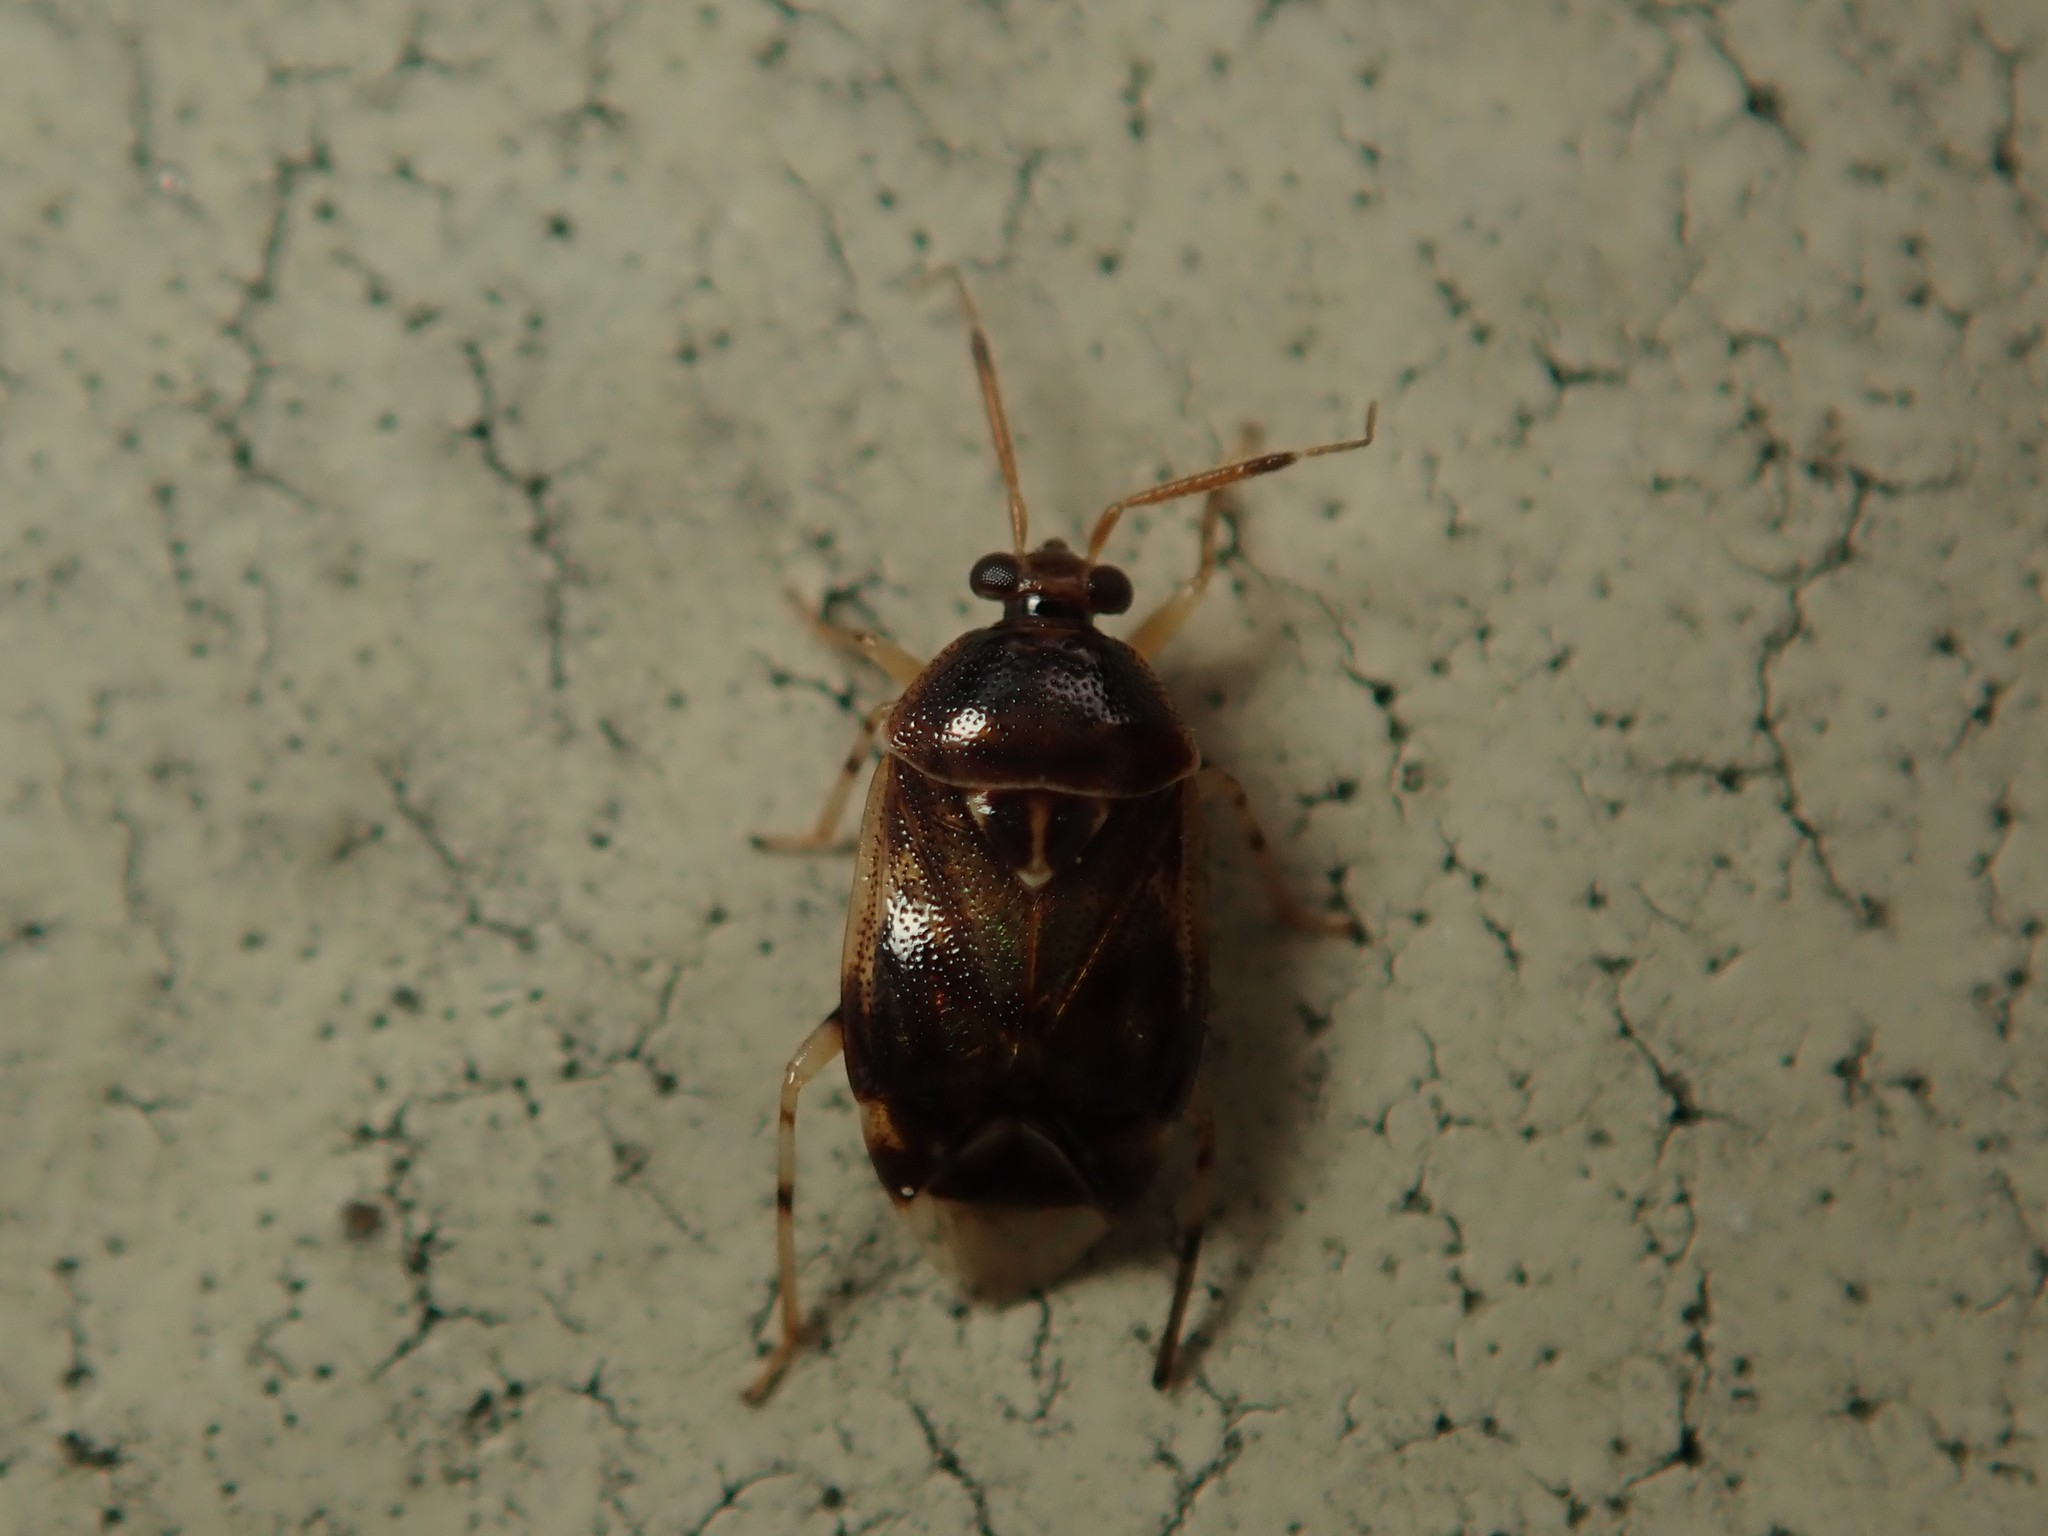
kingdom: Animalia
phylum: Arthropoda
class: Insecta
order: Hemiptera
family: Miridae
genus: Deraeocoris
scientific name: Deraeocoris lutescens
